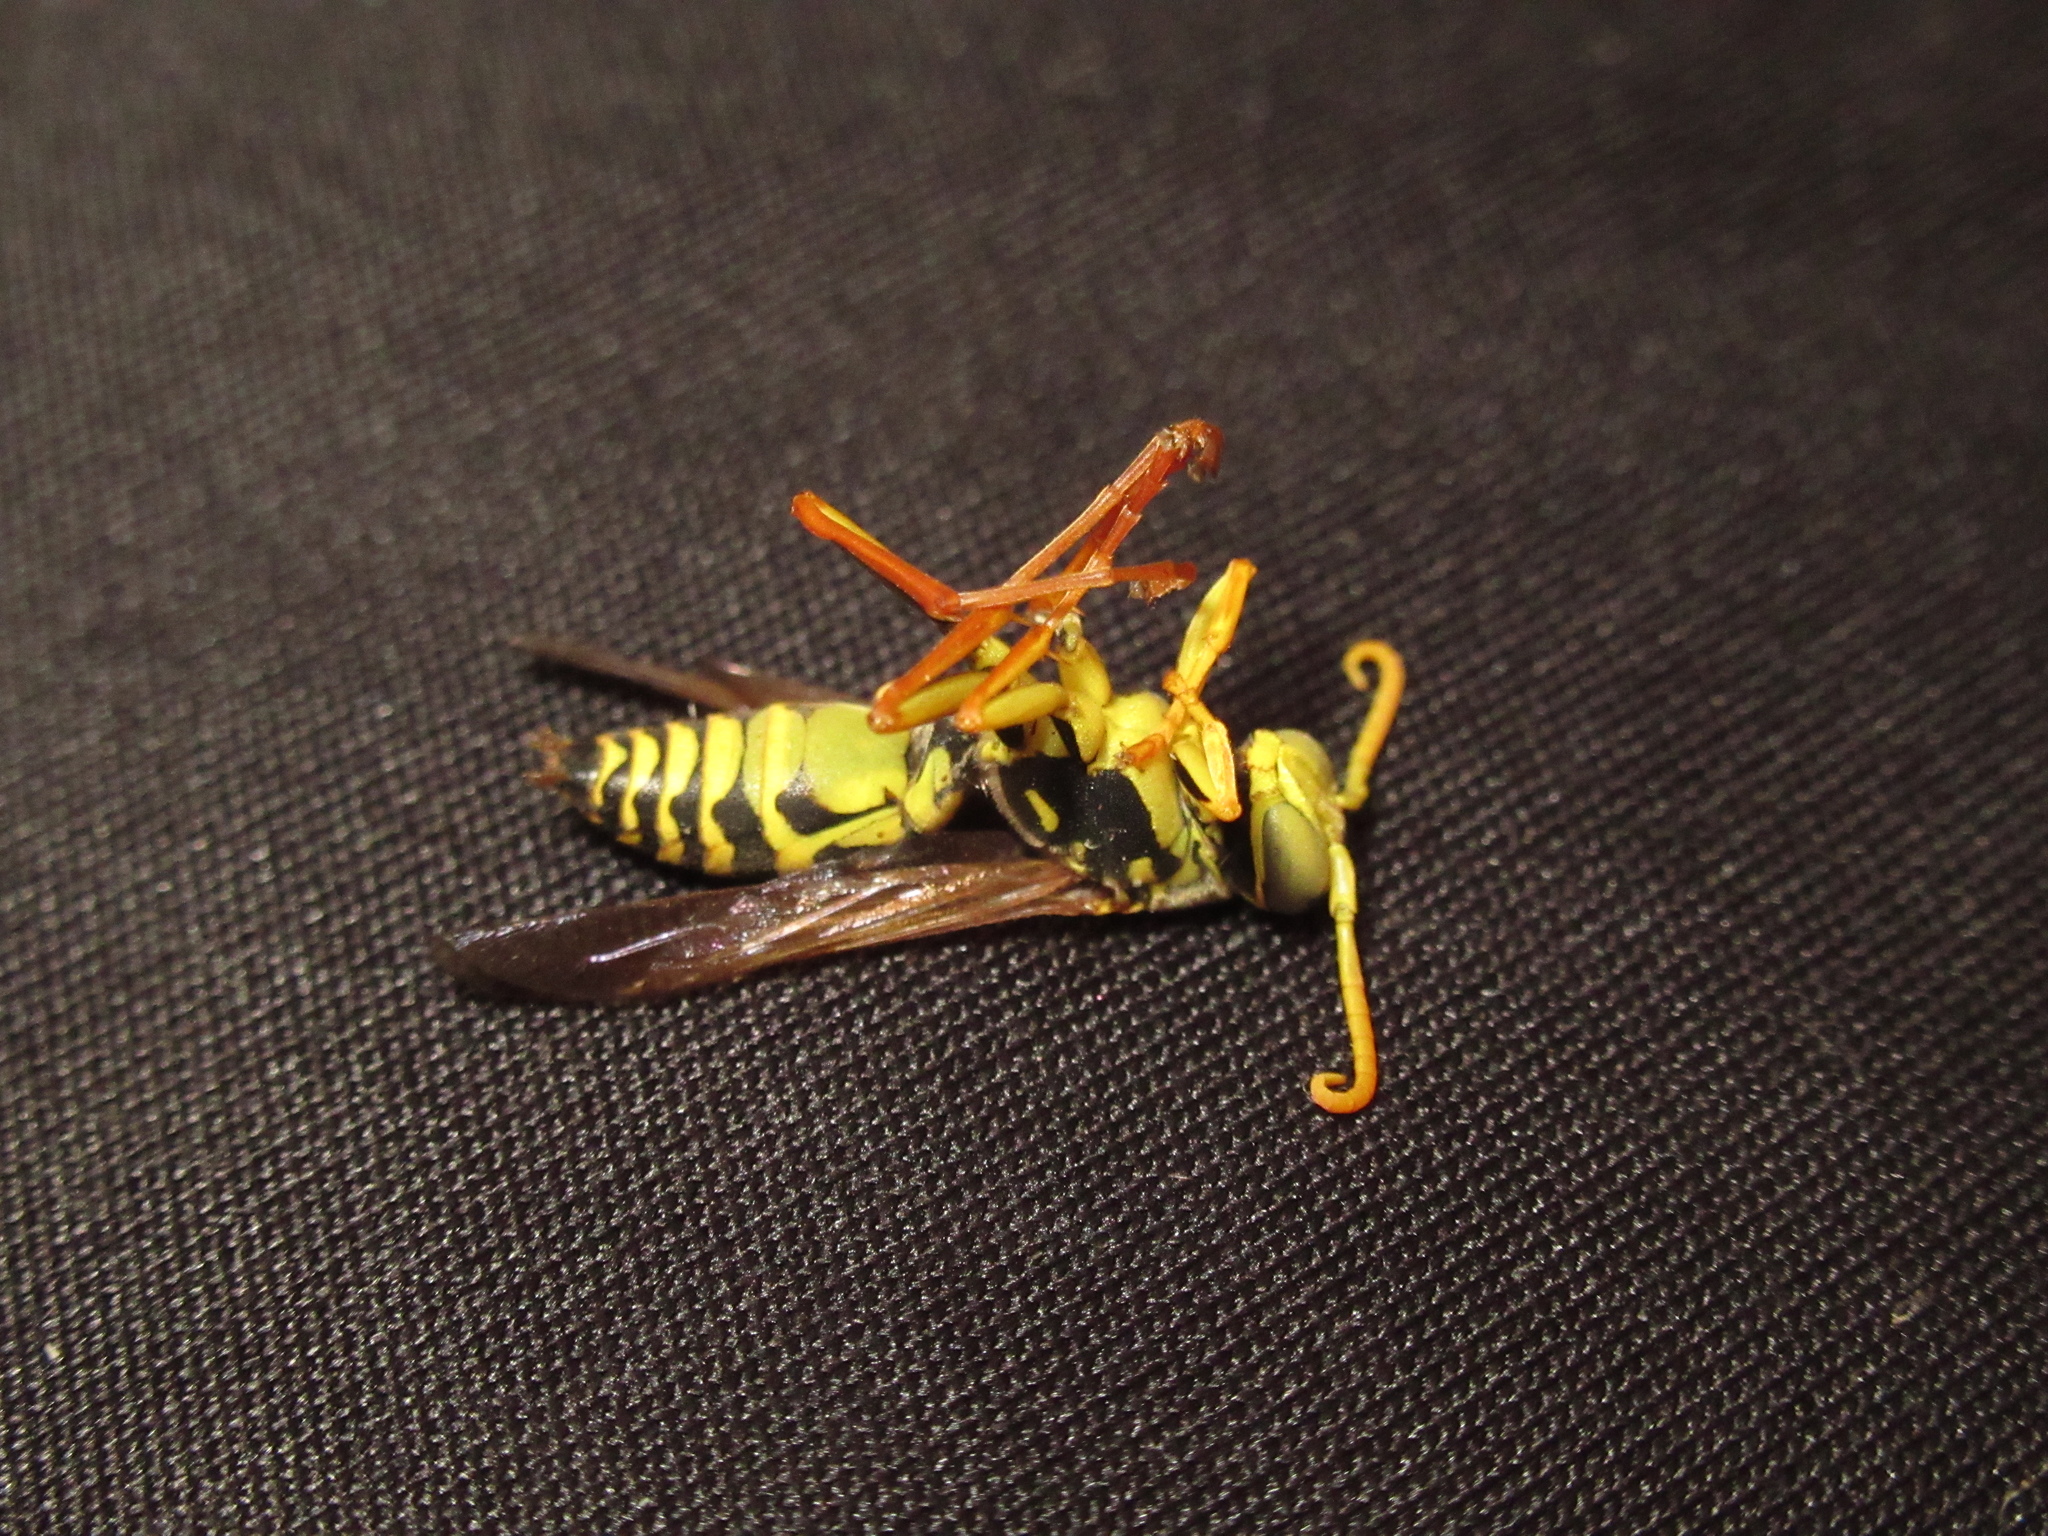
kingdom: Animalia
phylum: Arthropoda
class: Insecta
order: Hymenoptera
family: Eumenidae
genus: Polistes
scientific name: Polistes chinensis
